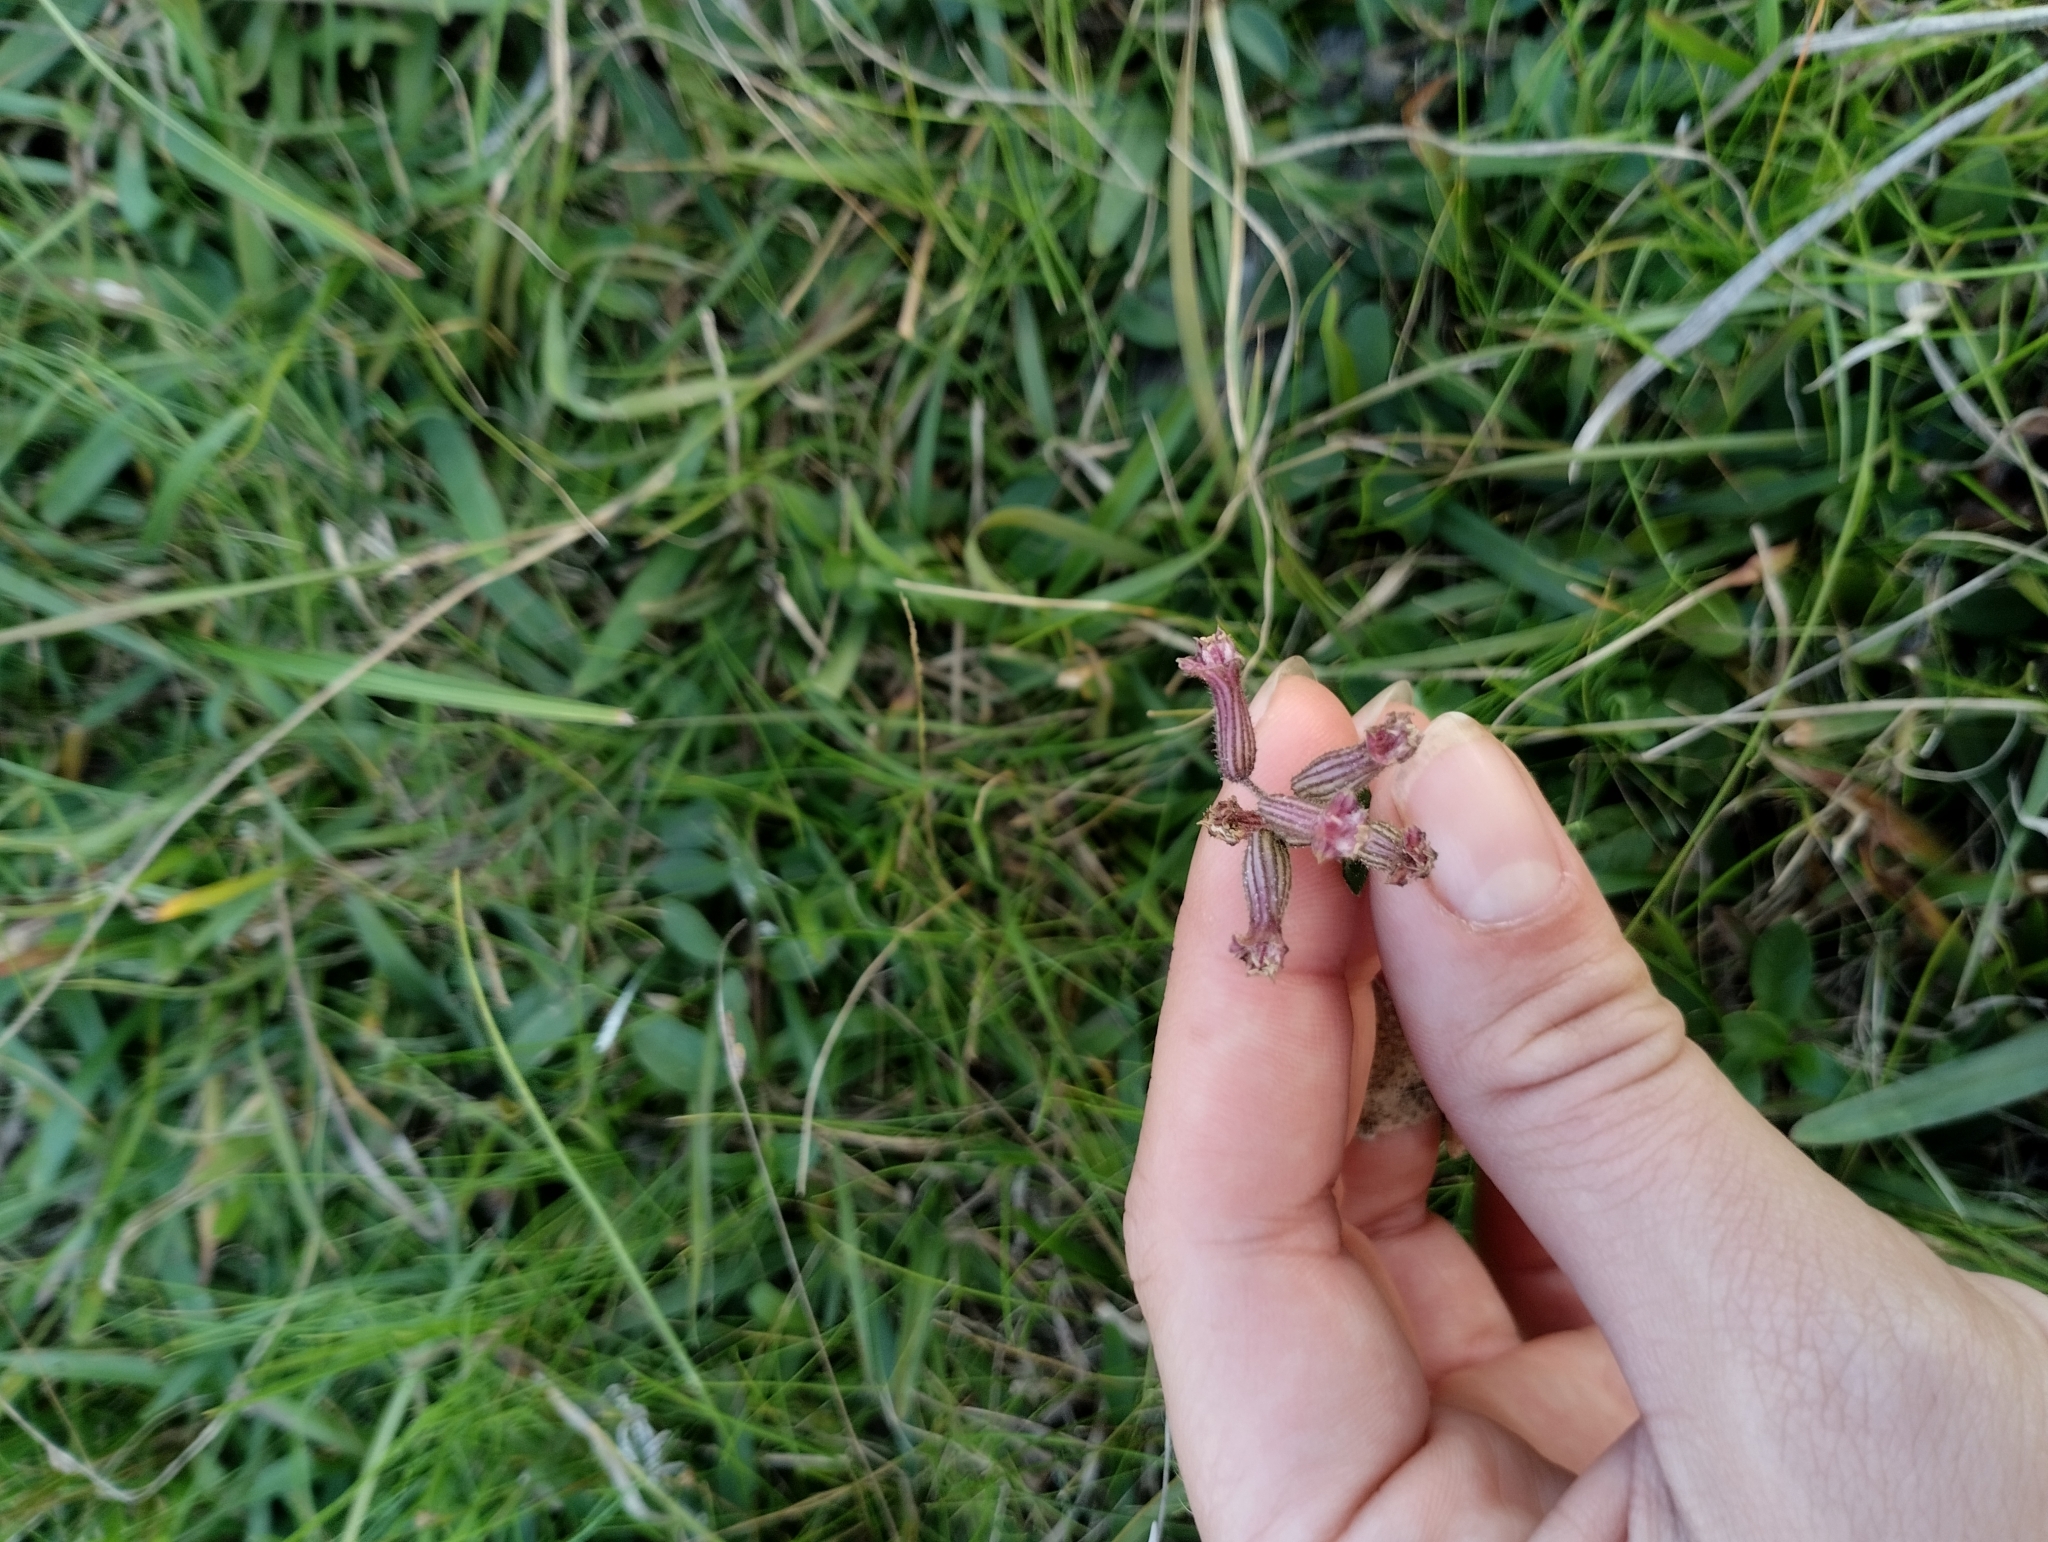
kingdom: Plantae
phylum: Tracheophyta
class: Magnoliopsida
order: Myrtales
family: Lythraceae
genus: Cuphea
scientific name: Cuphea racemosa
